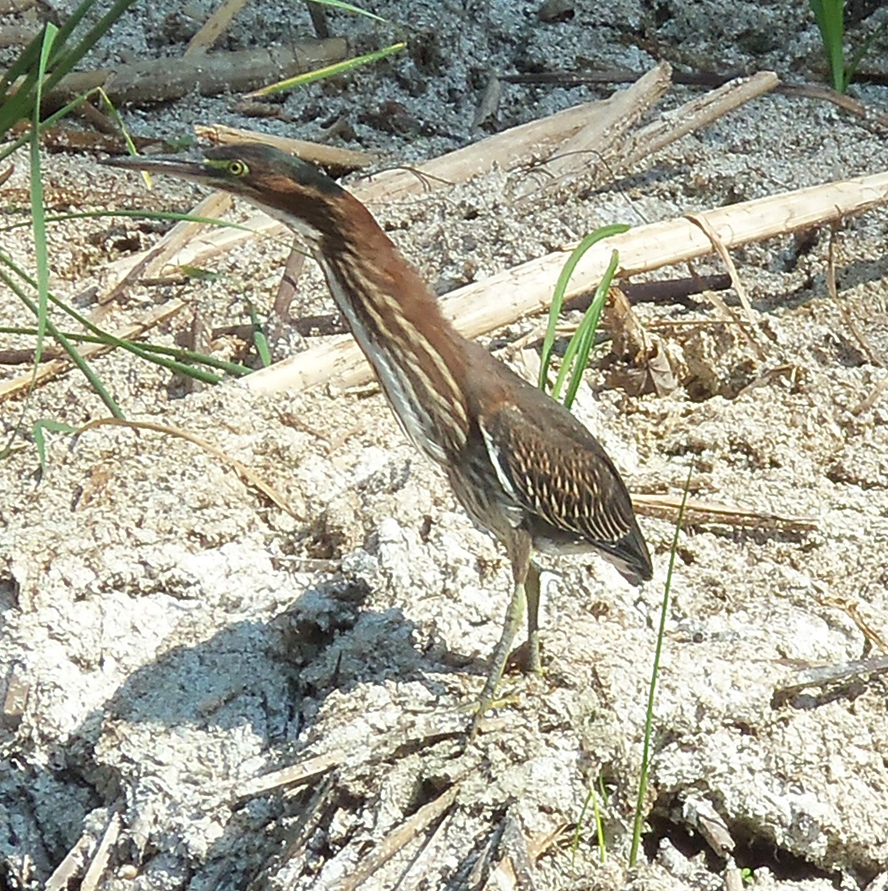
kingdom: Animalia
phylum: Chordata
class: Aves
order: Pelecaniformes
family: Ardeidae
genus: Butorides
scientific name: Butorides virescens
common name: Green heron
